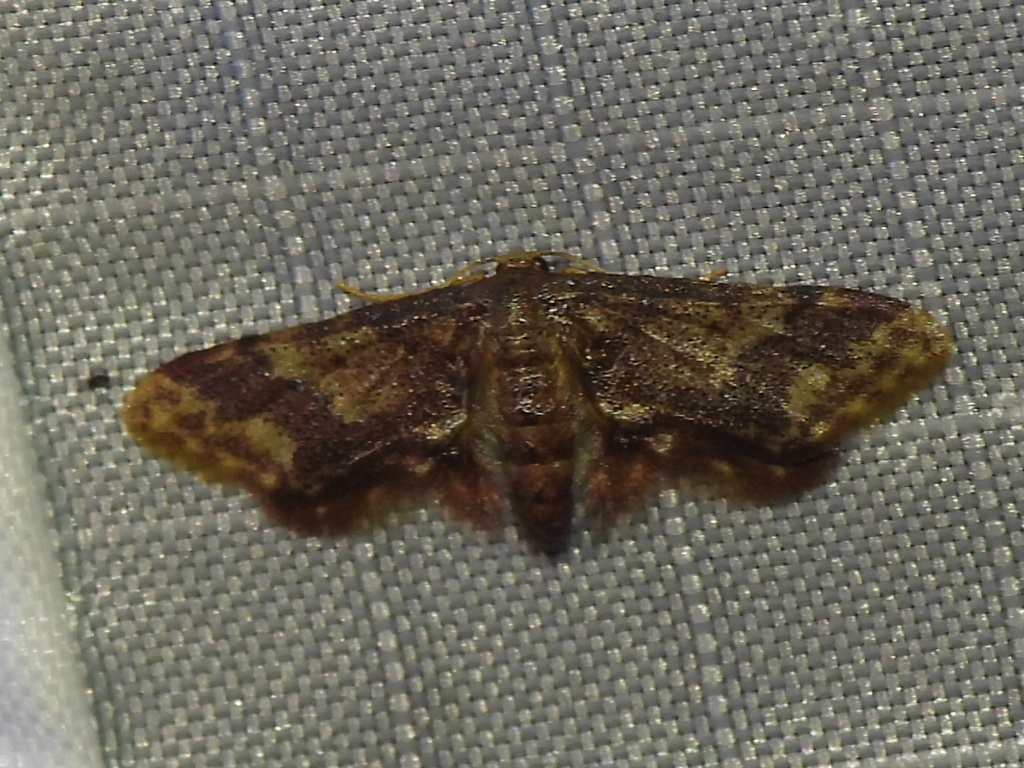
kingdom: Animalia
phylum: Arthropoda
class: Insecta
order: Lepidoptera
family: Geometridae
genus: Idaea
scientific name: Idaea furciferata
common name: Notch-winged wave
